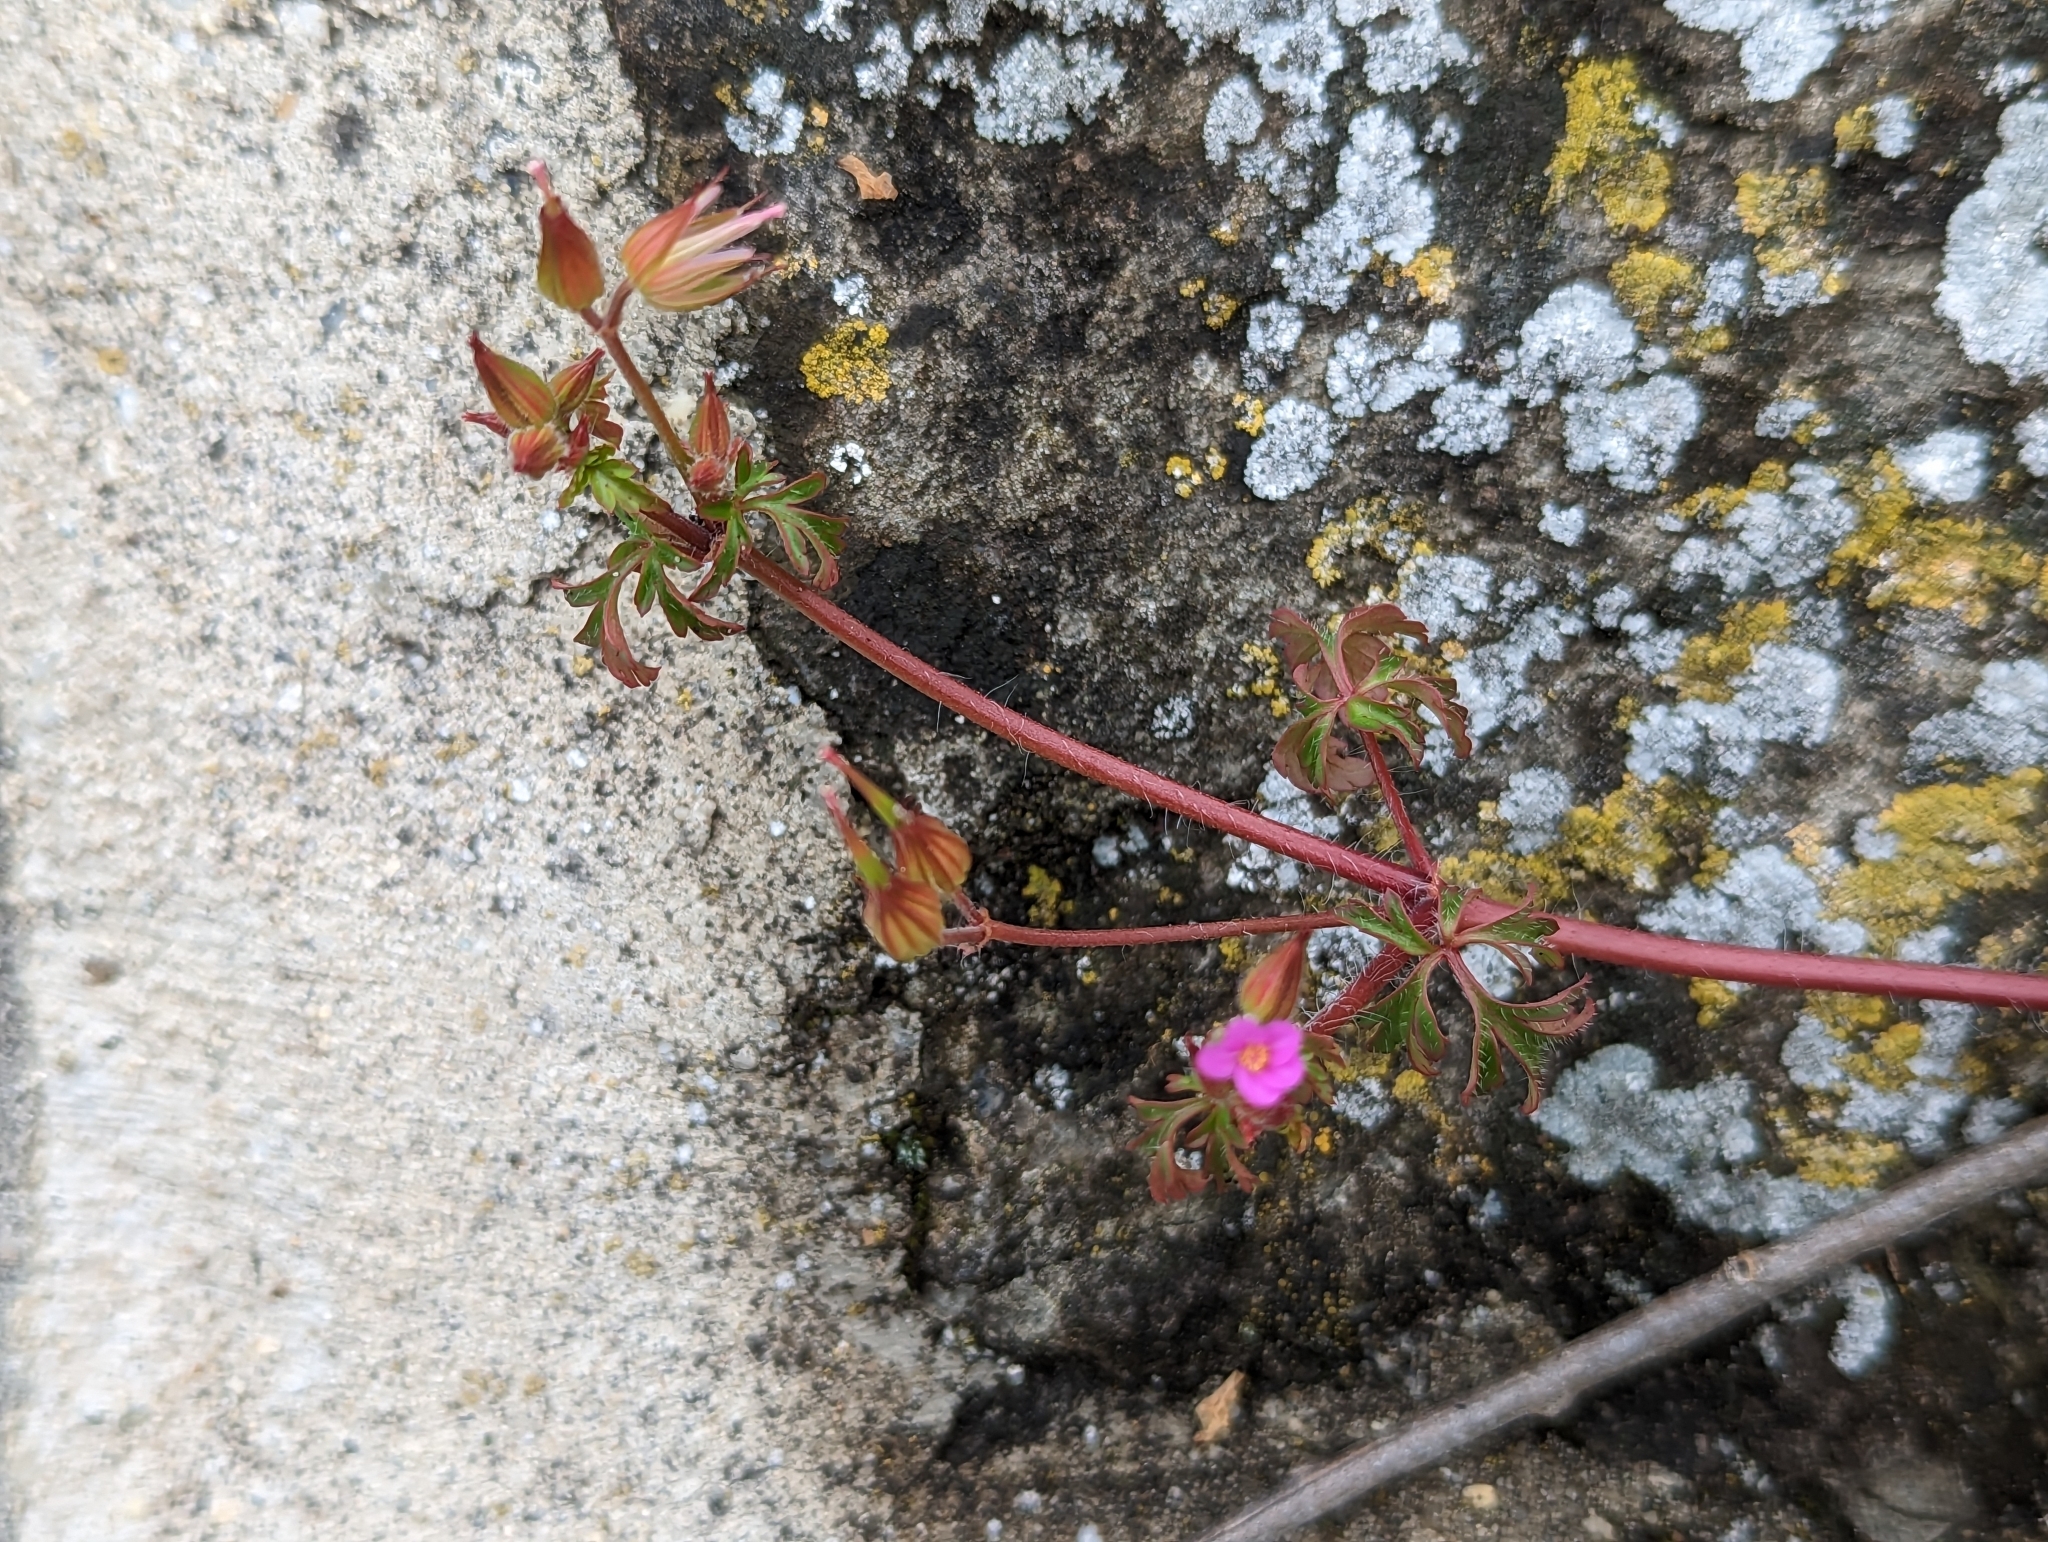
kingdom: Plantae
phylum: Tracheophyta
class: Magnoliopsida
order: Geraniales
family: Geraniaceae
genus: Geranium
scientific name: Geranium purpureum
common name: Little-robin
